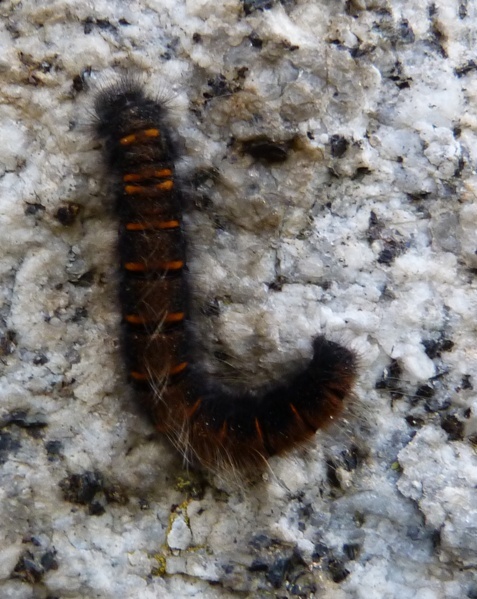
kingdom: Animalia
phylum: Arthropoda
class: Insecta
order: Lepidoptera
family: Lasiocampidae
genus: Macrothylacia
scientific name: Macrothylacia rubi
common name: Fox moth
